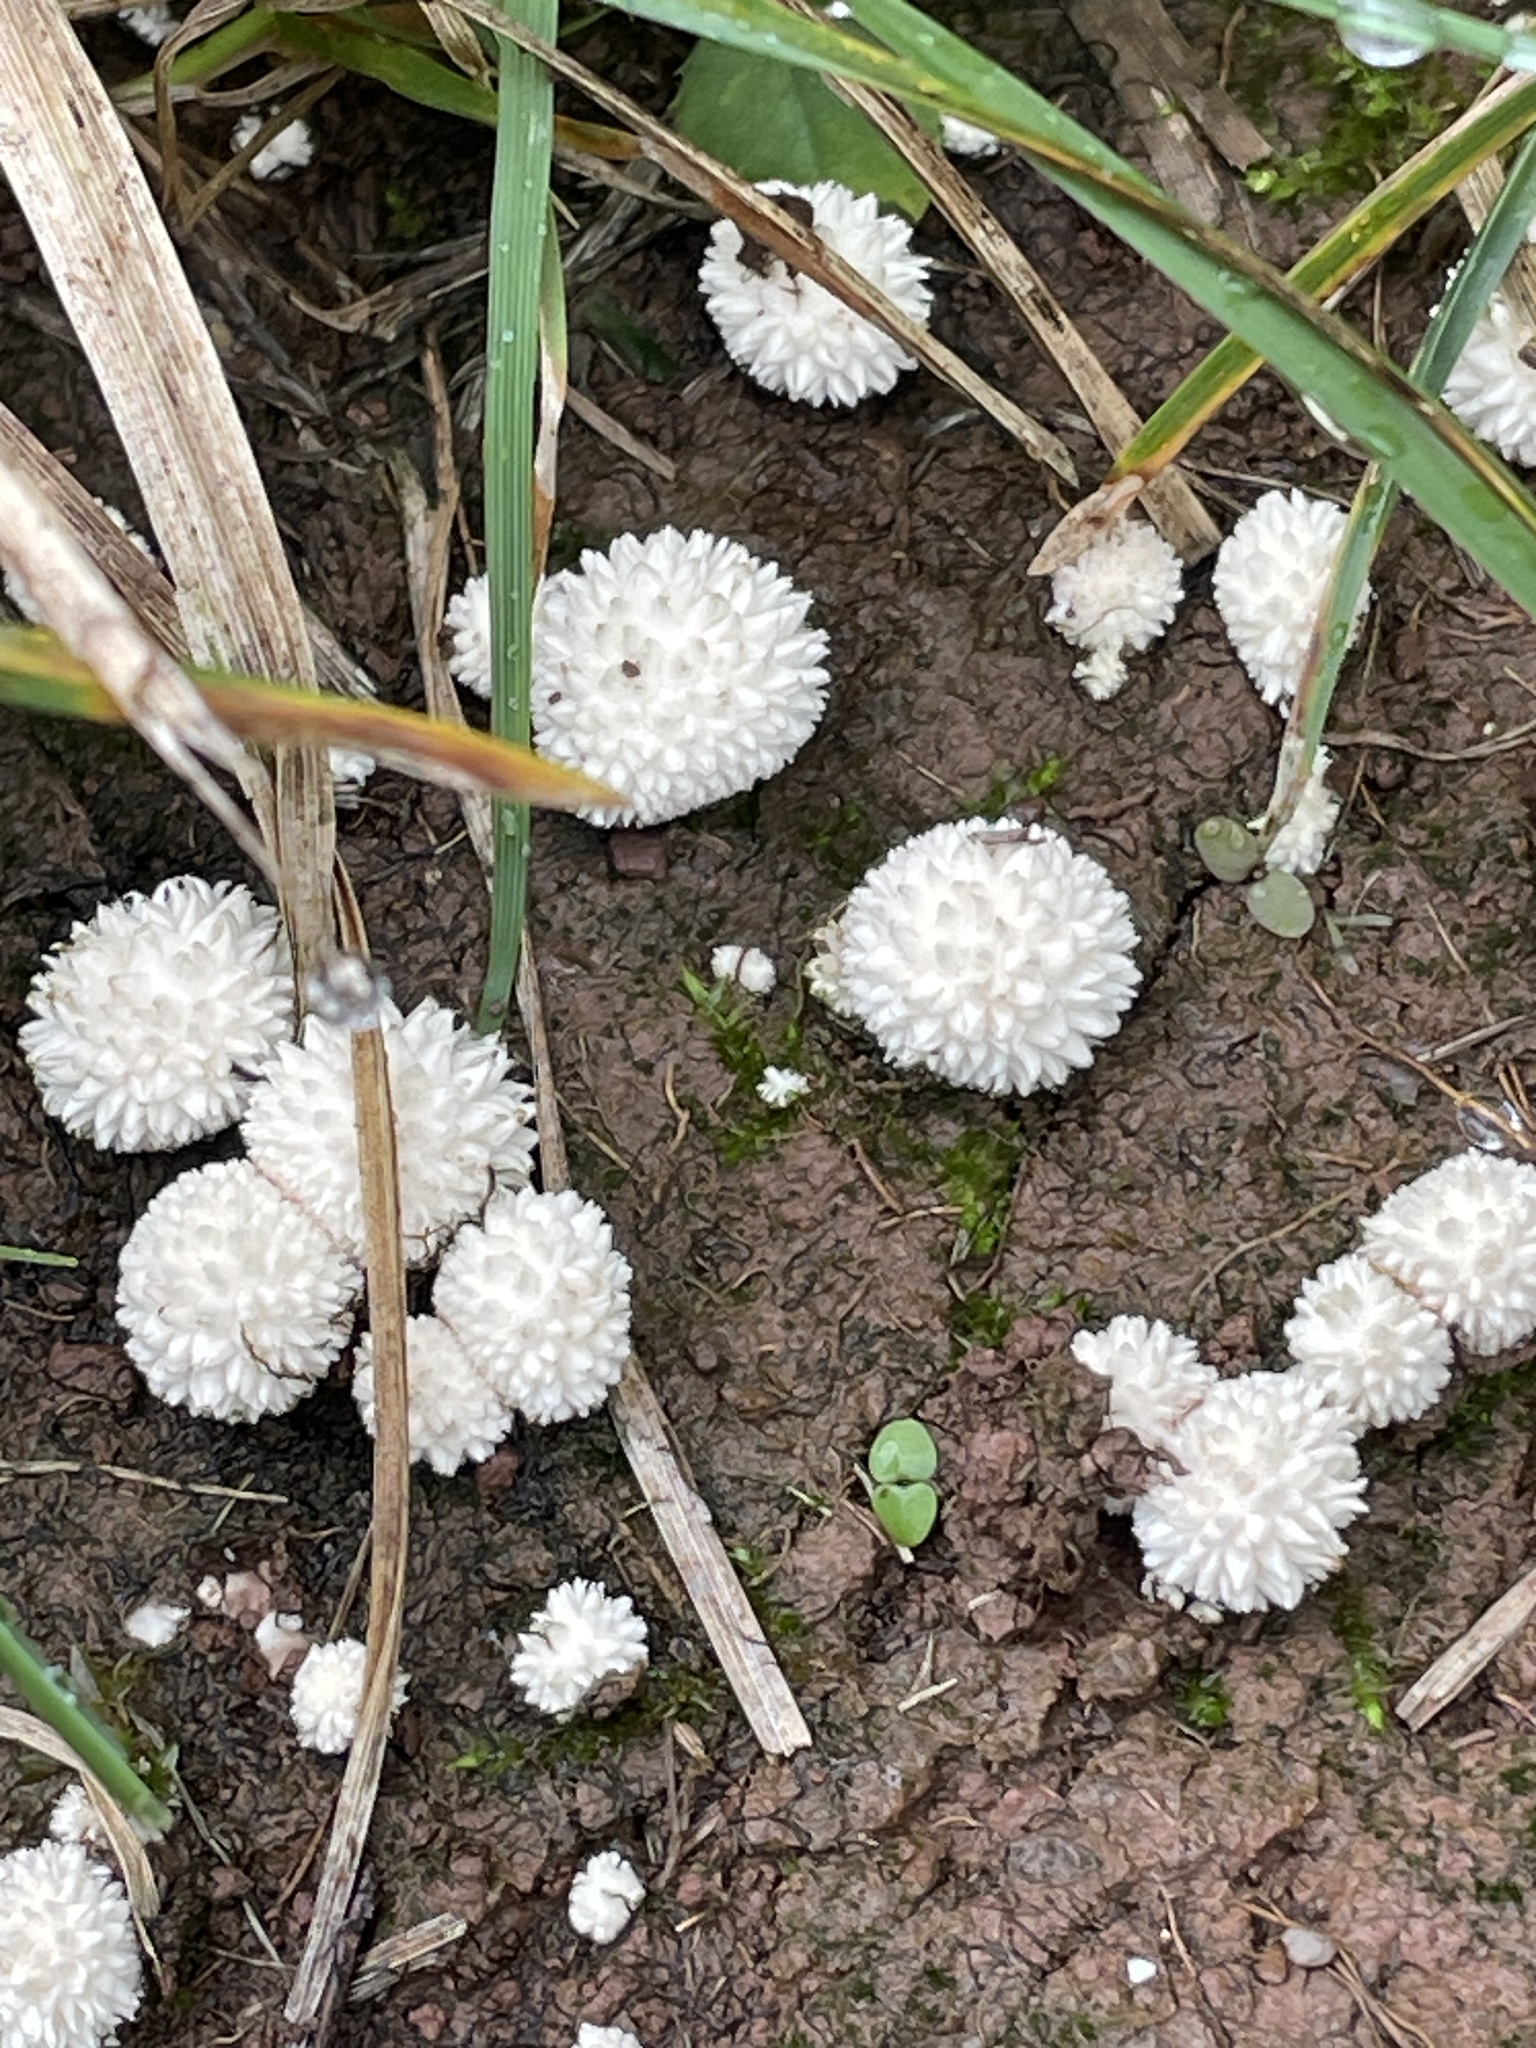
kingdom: Fungi
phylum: Basidiomycota
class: Agaricomycetes
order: Agaricales
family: Lycoperdaceae
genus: Lycoperdon
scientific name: Lycoperdon curtisii
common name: Curtis's puffball
